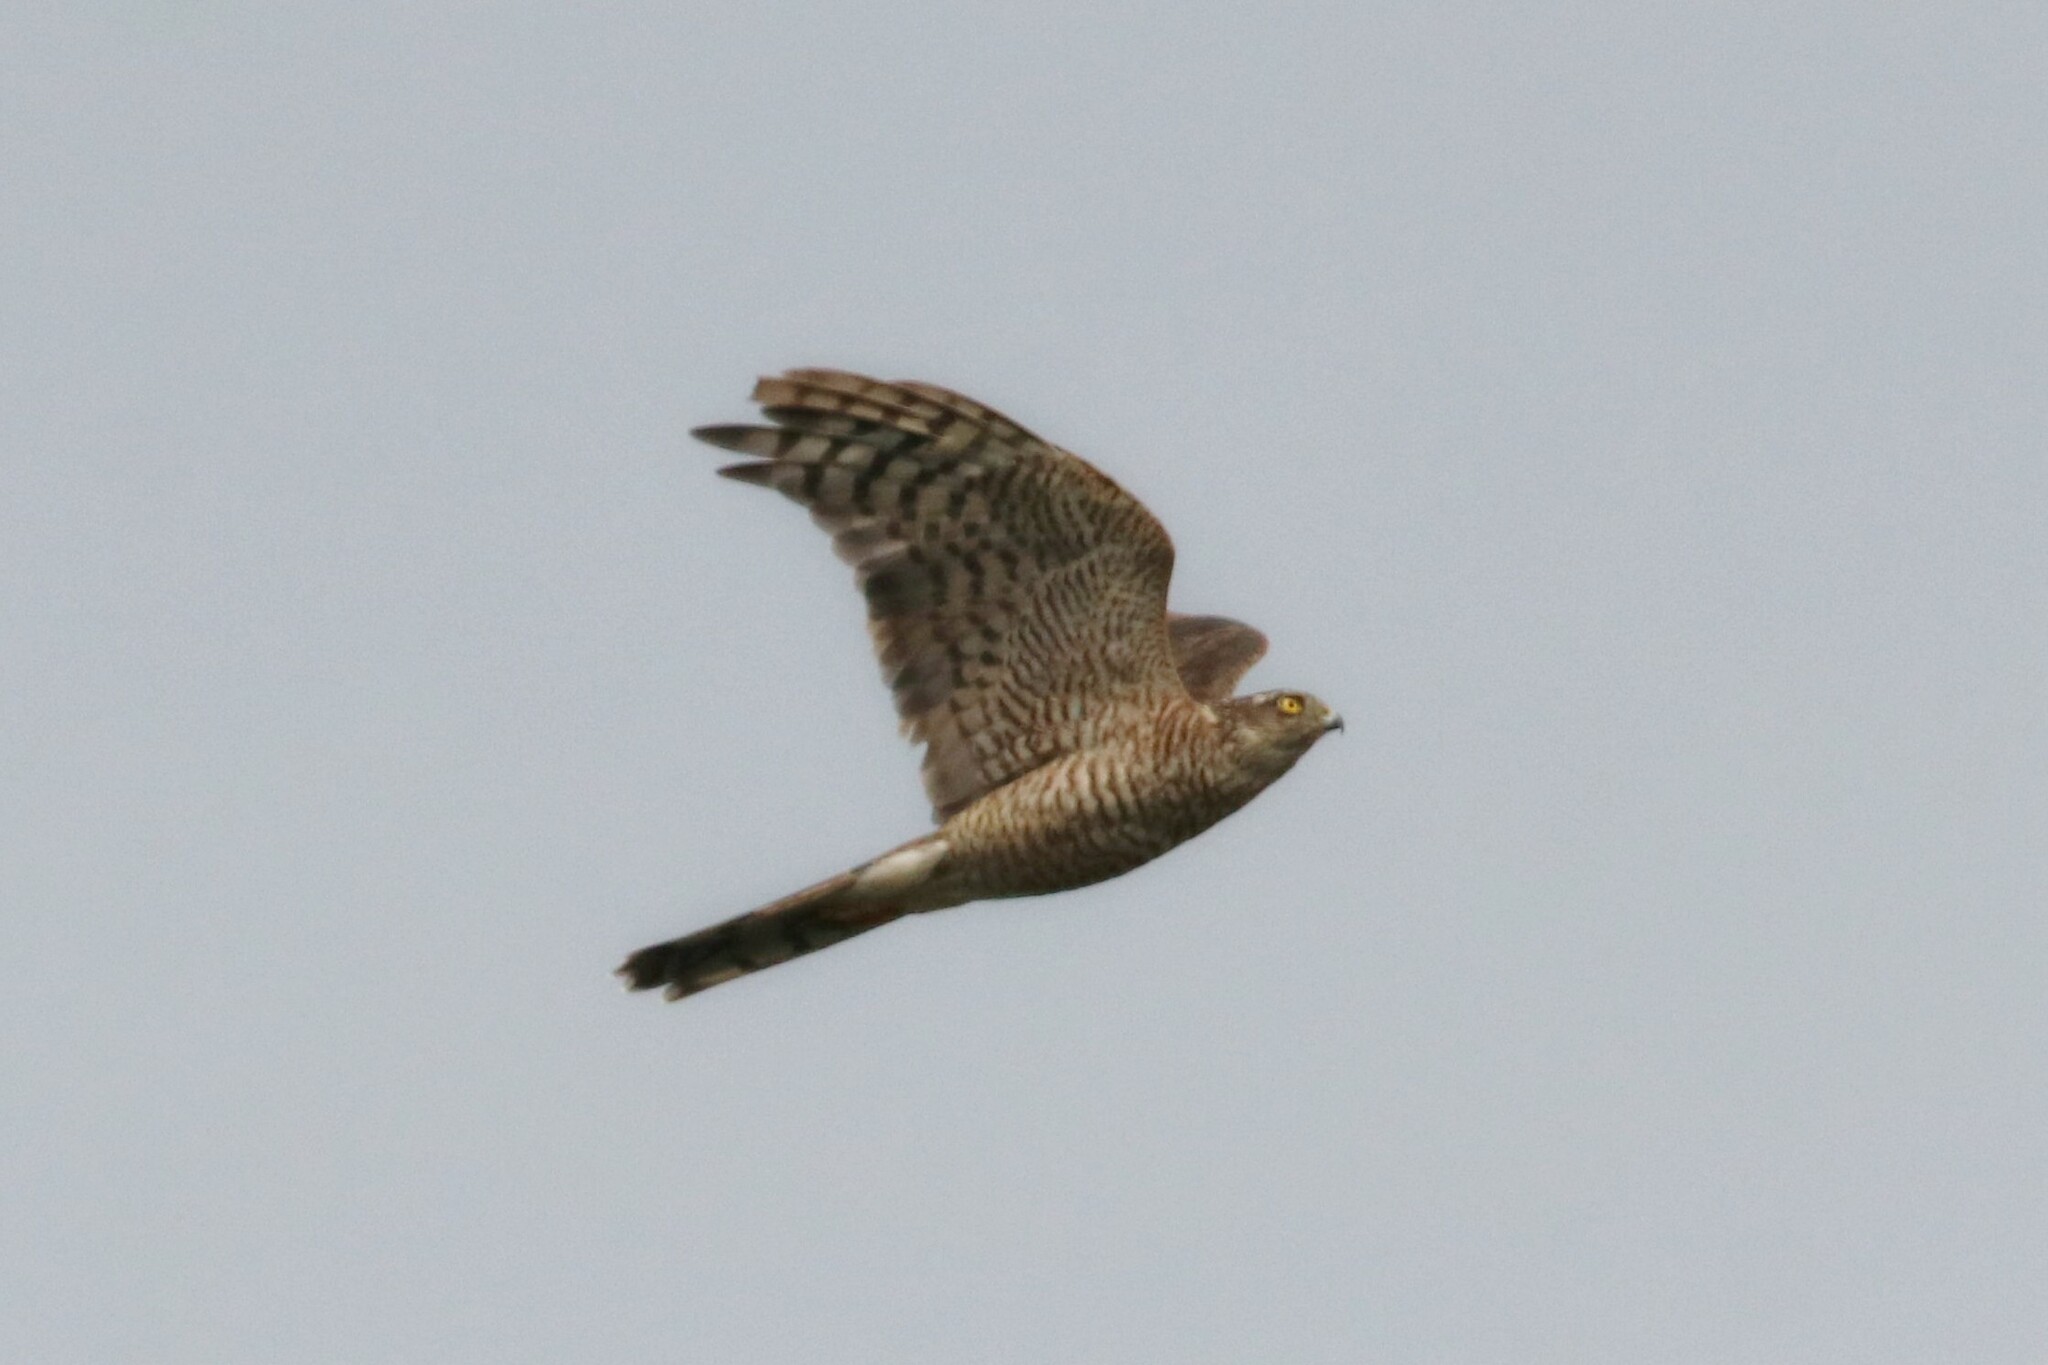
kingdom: Animalia
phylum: Chordata
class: Aves
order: Accipitriformes
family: Accipitridae
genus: Accipiter
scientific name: Accipiter nisus
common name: Eurasian sparrowhawk
